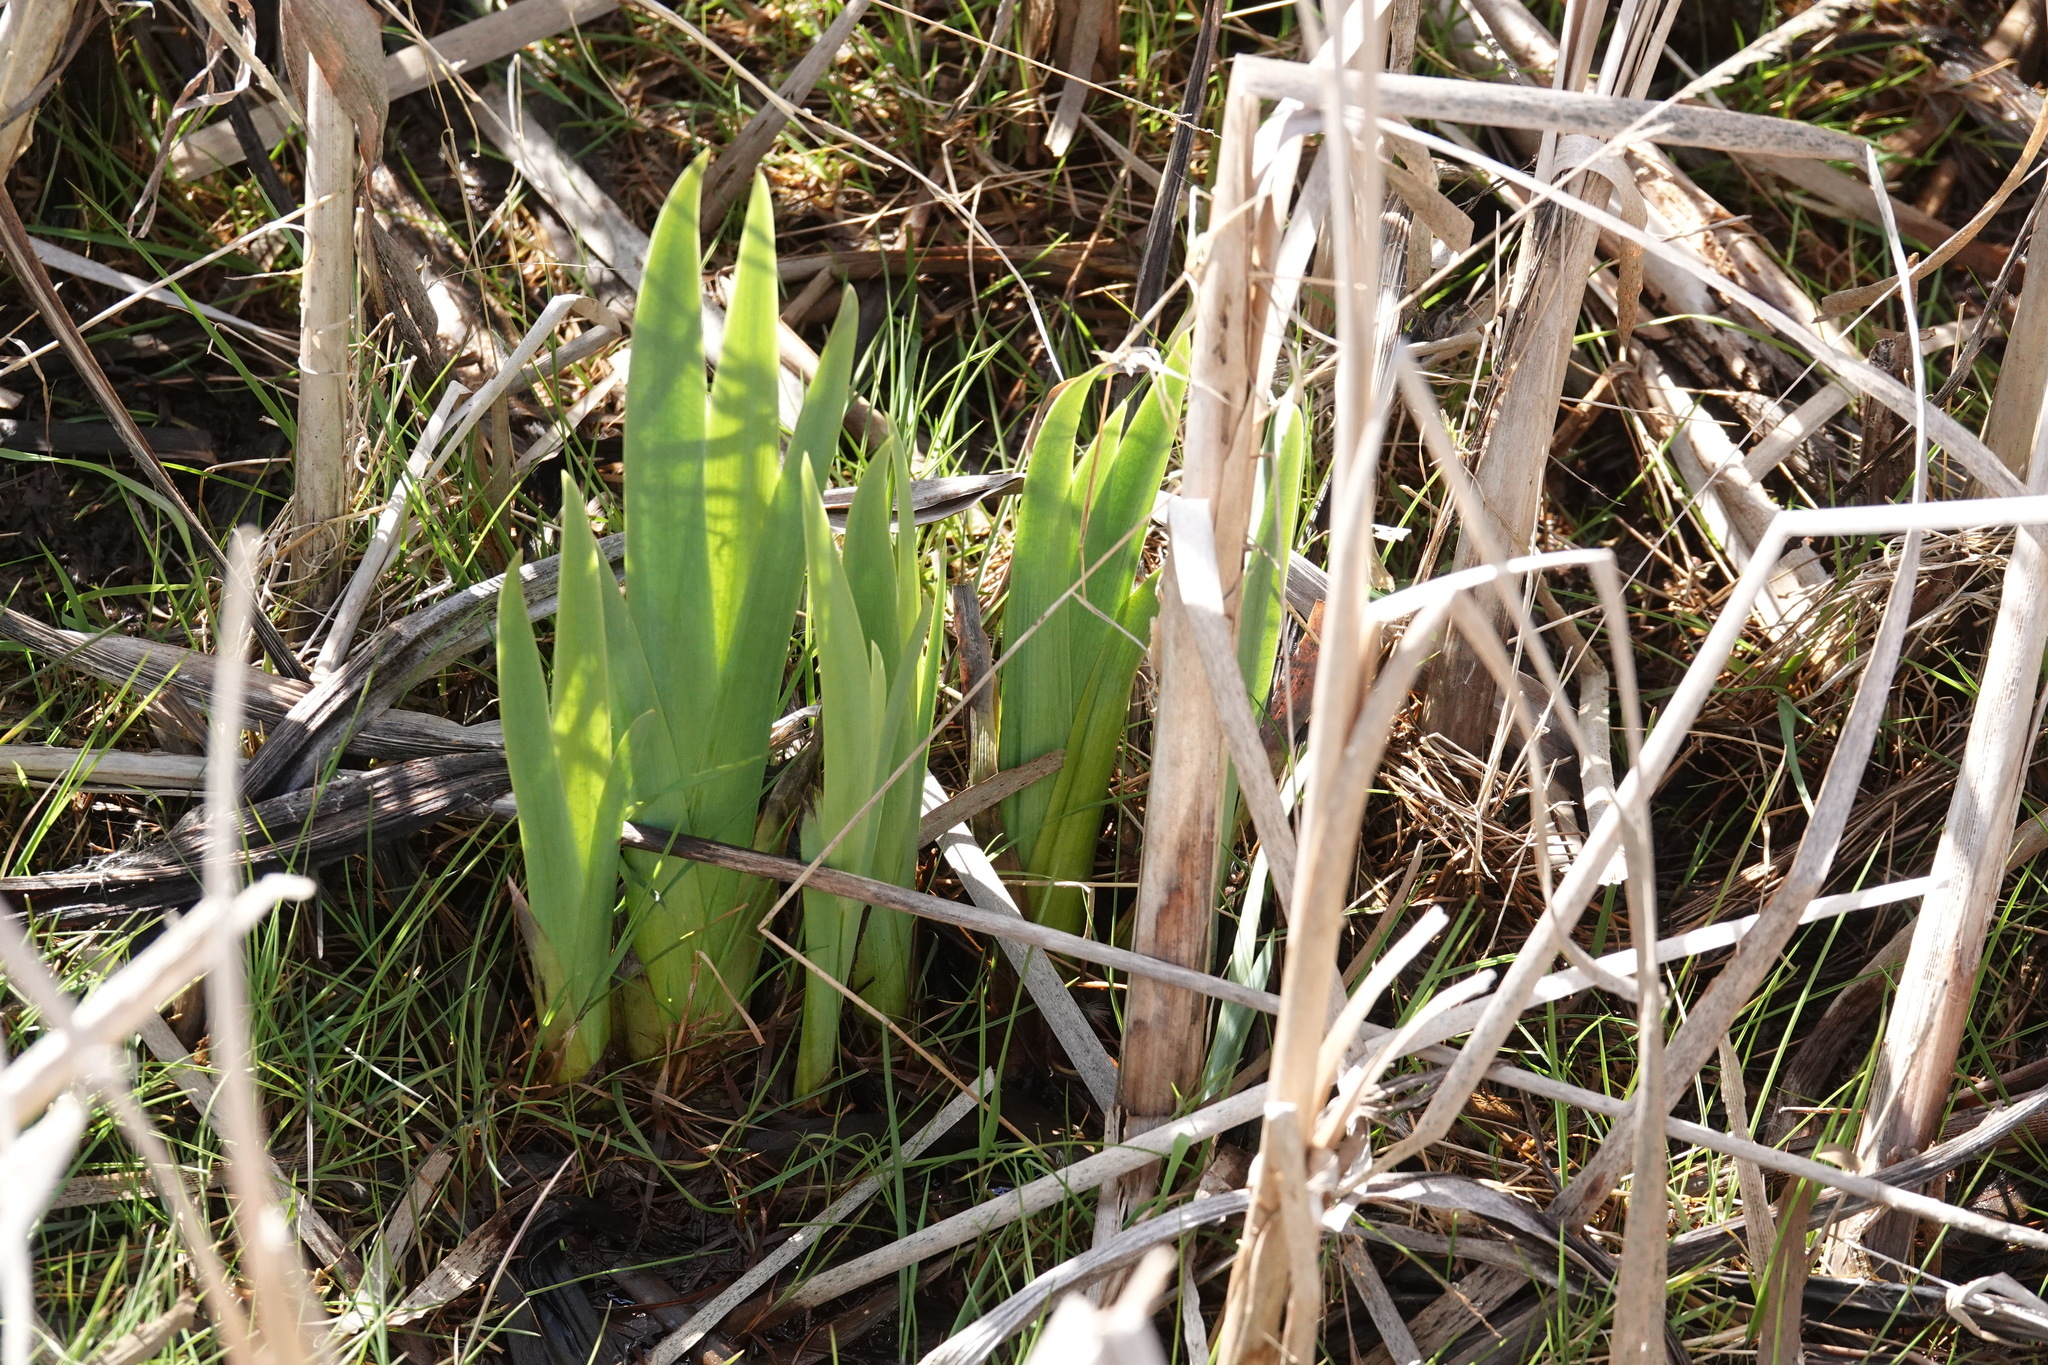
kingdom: Plantae
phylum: Tracheophyta
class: Liliopsida
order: Asparagales
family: Iridaceae
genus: Iris
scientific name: Iris pseudacorus
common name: Yellow flag
